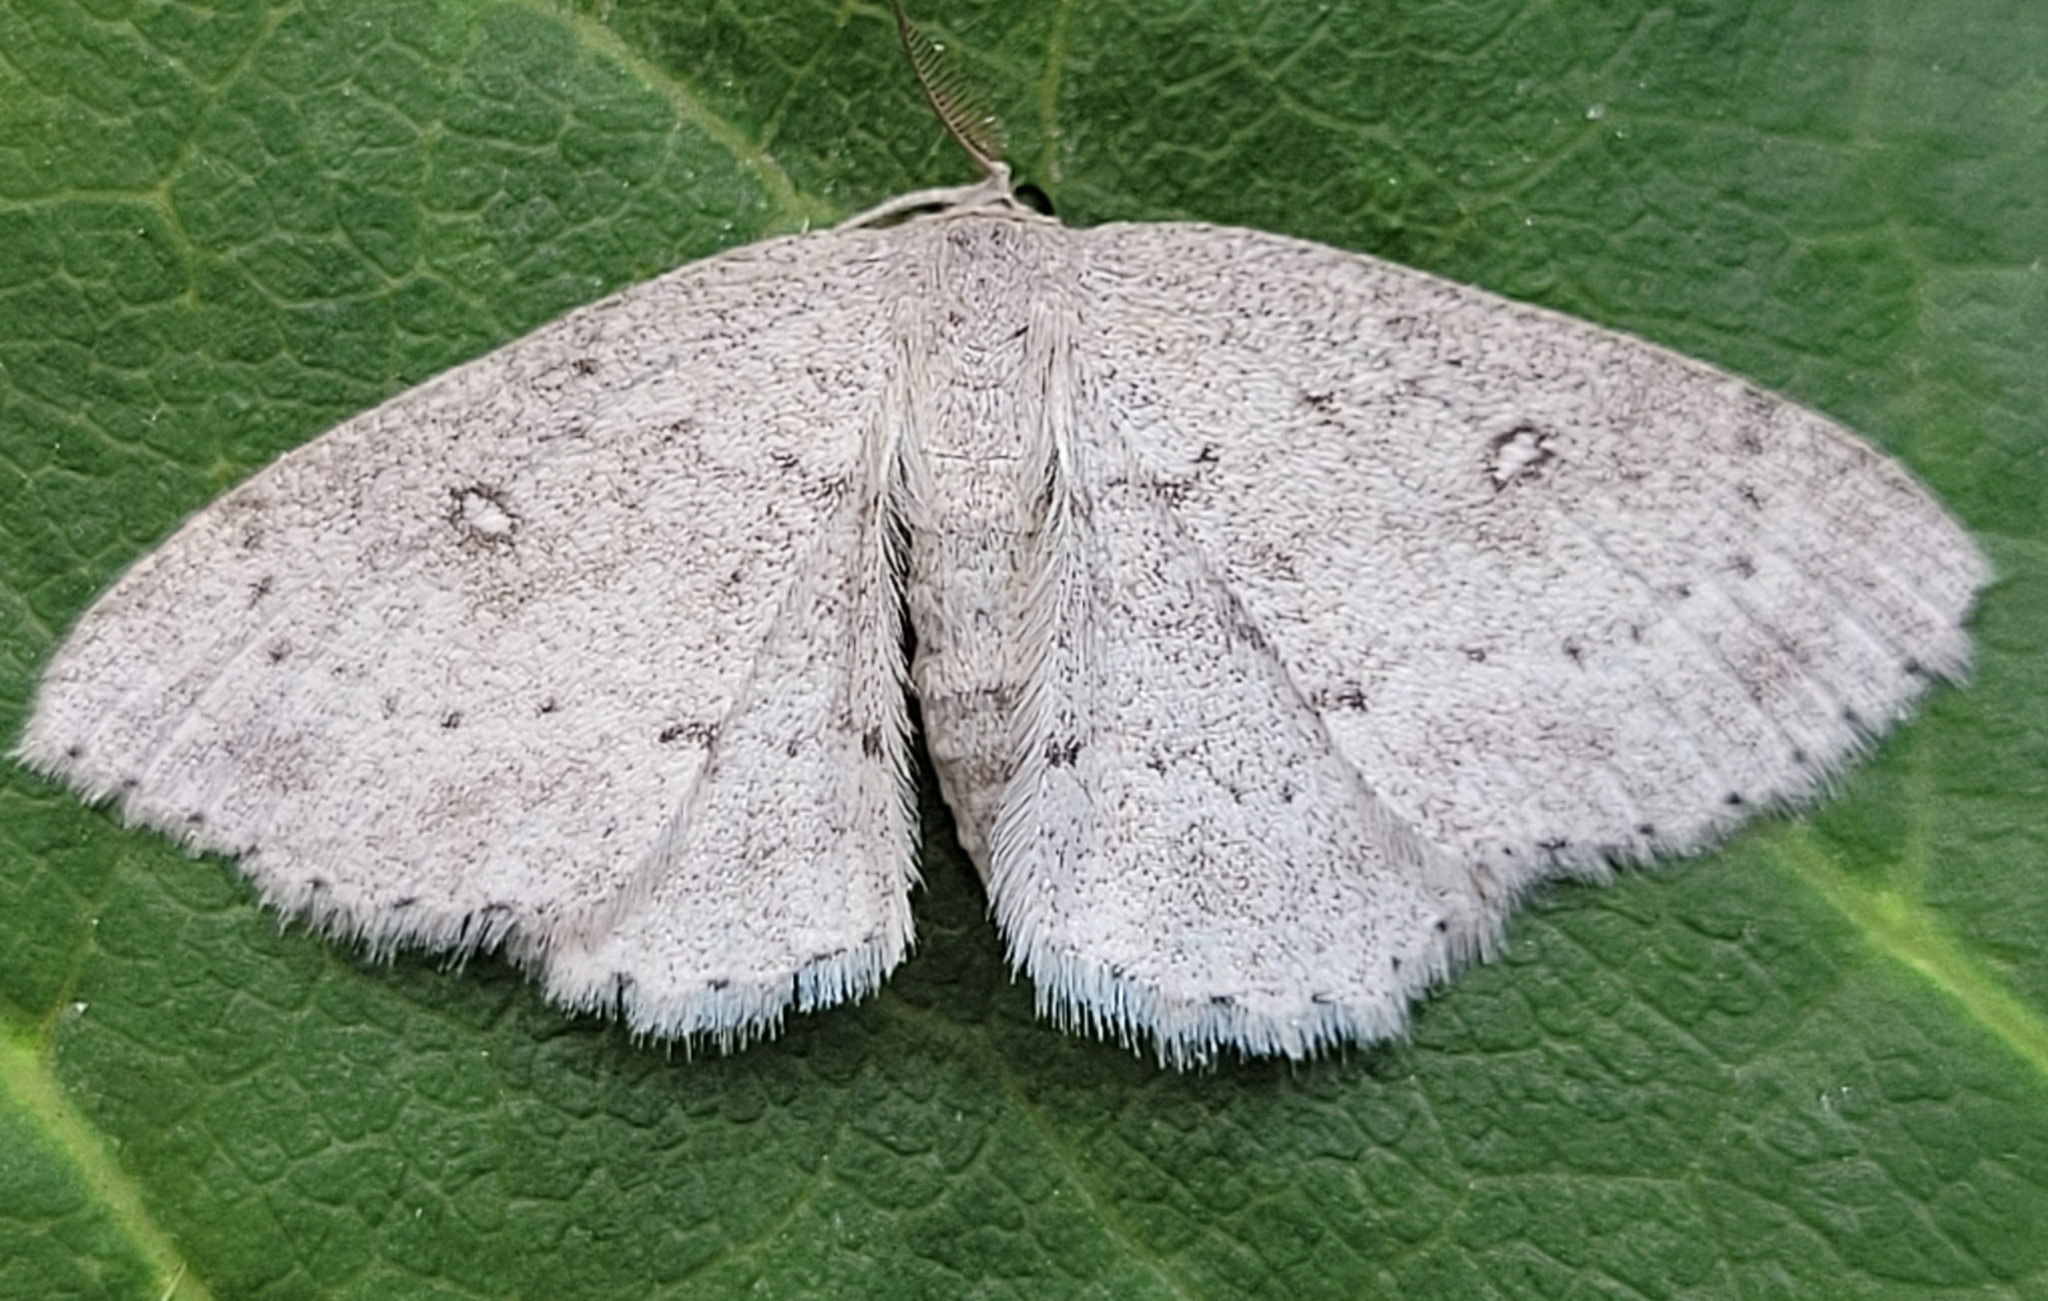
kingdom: Animalia
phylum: Arthropoda
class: Insecta
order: Lepidoptera
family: Geometridae
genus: Cyclophora
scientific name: Cyclophora pendulinaria
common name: Sweet fern geometer
